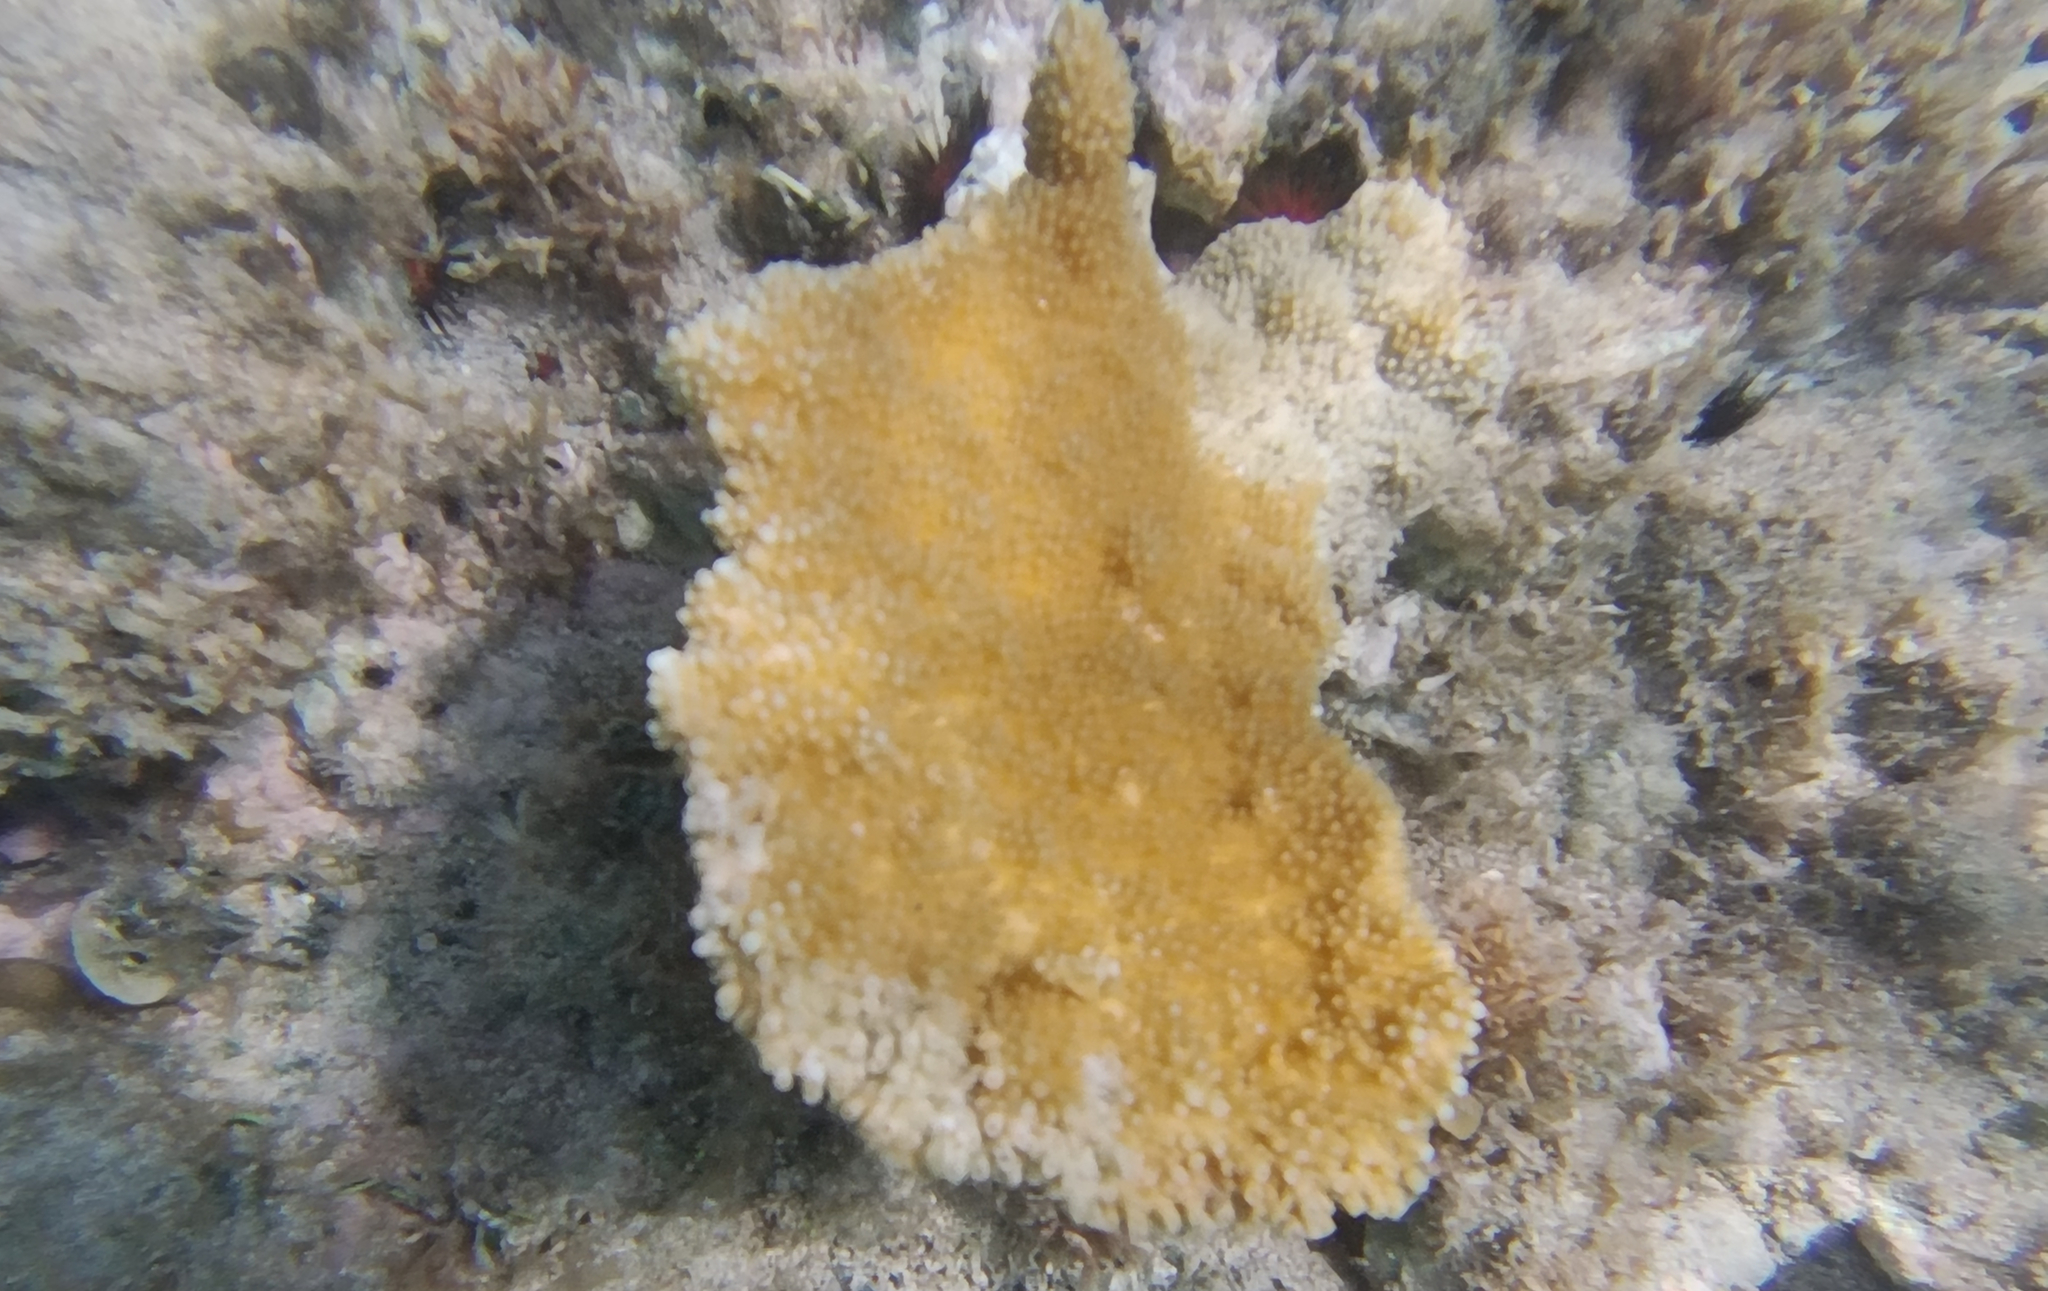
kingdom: Animalia
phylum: Cnidaria
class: Anthozoa
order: Scleractinia
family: Acroporidae
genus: Acropora
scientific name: Acropora palmata
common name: Elkhorn coral
